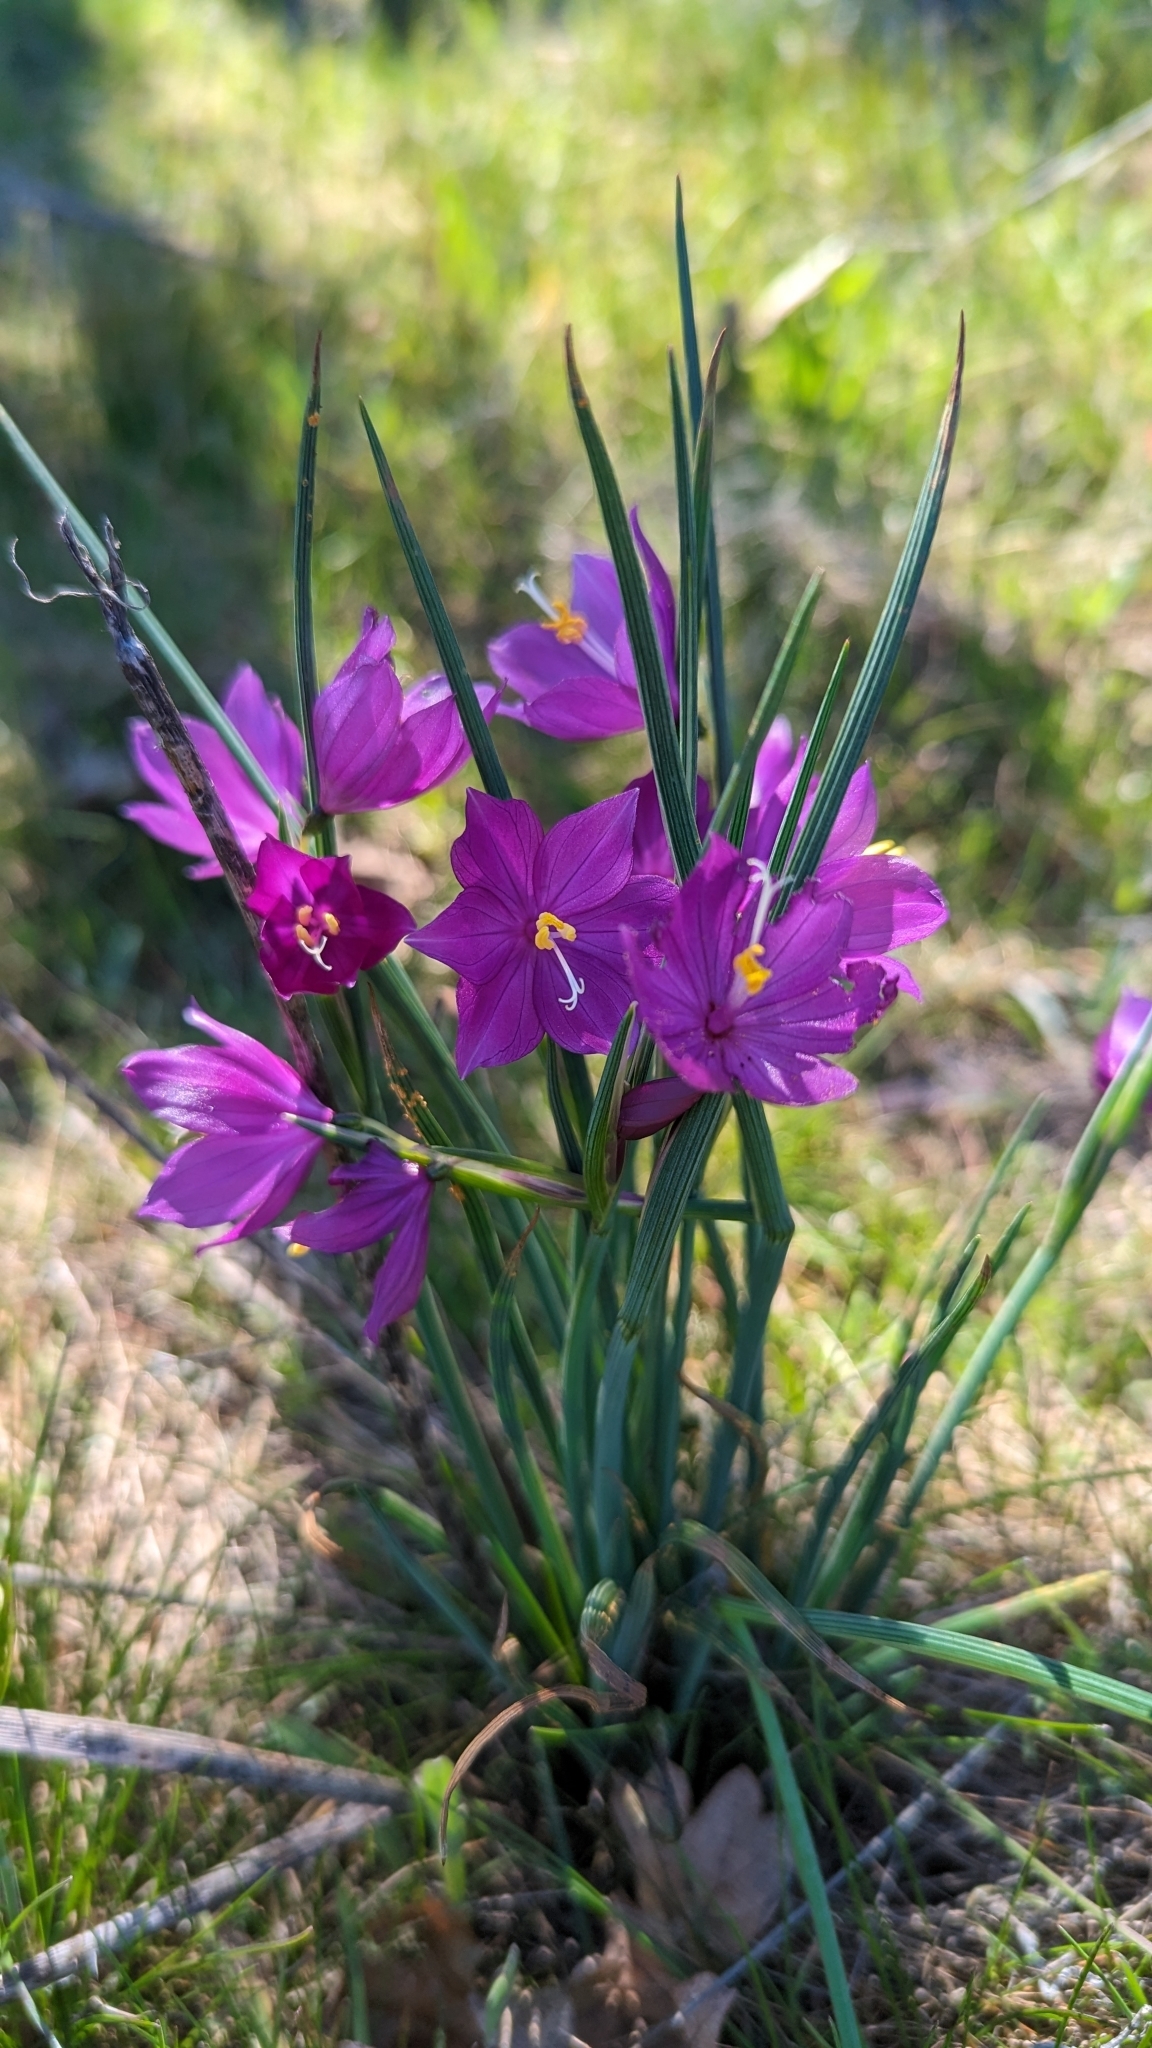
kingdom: Plantae
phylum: Tracheophyta
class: Liliopsida
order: Asparagales
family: Iridaceae
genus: Olsynium
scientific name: Olsynium douglasii
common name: Douglas' grasswidow
